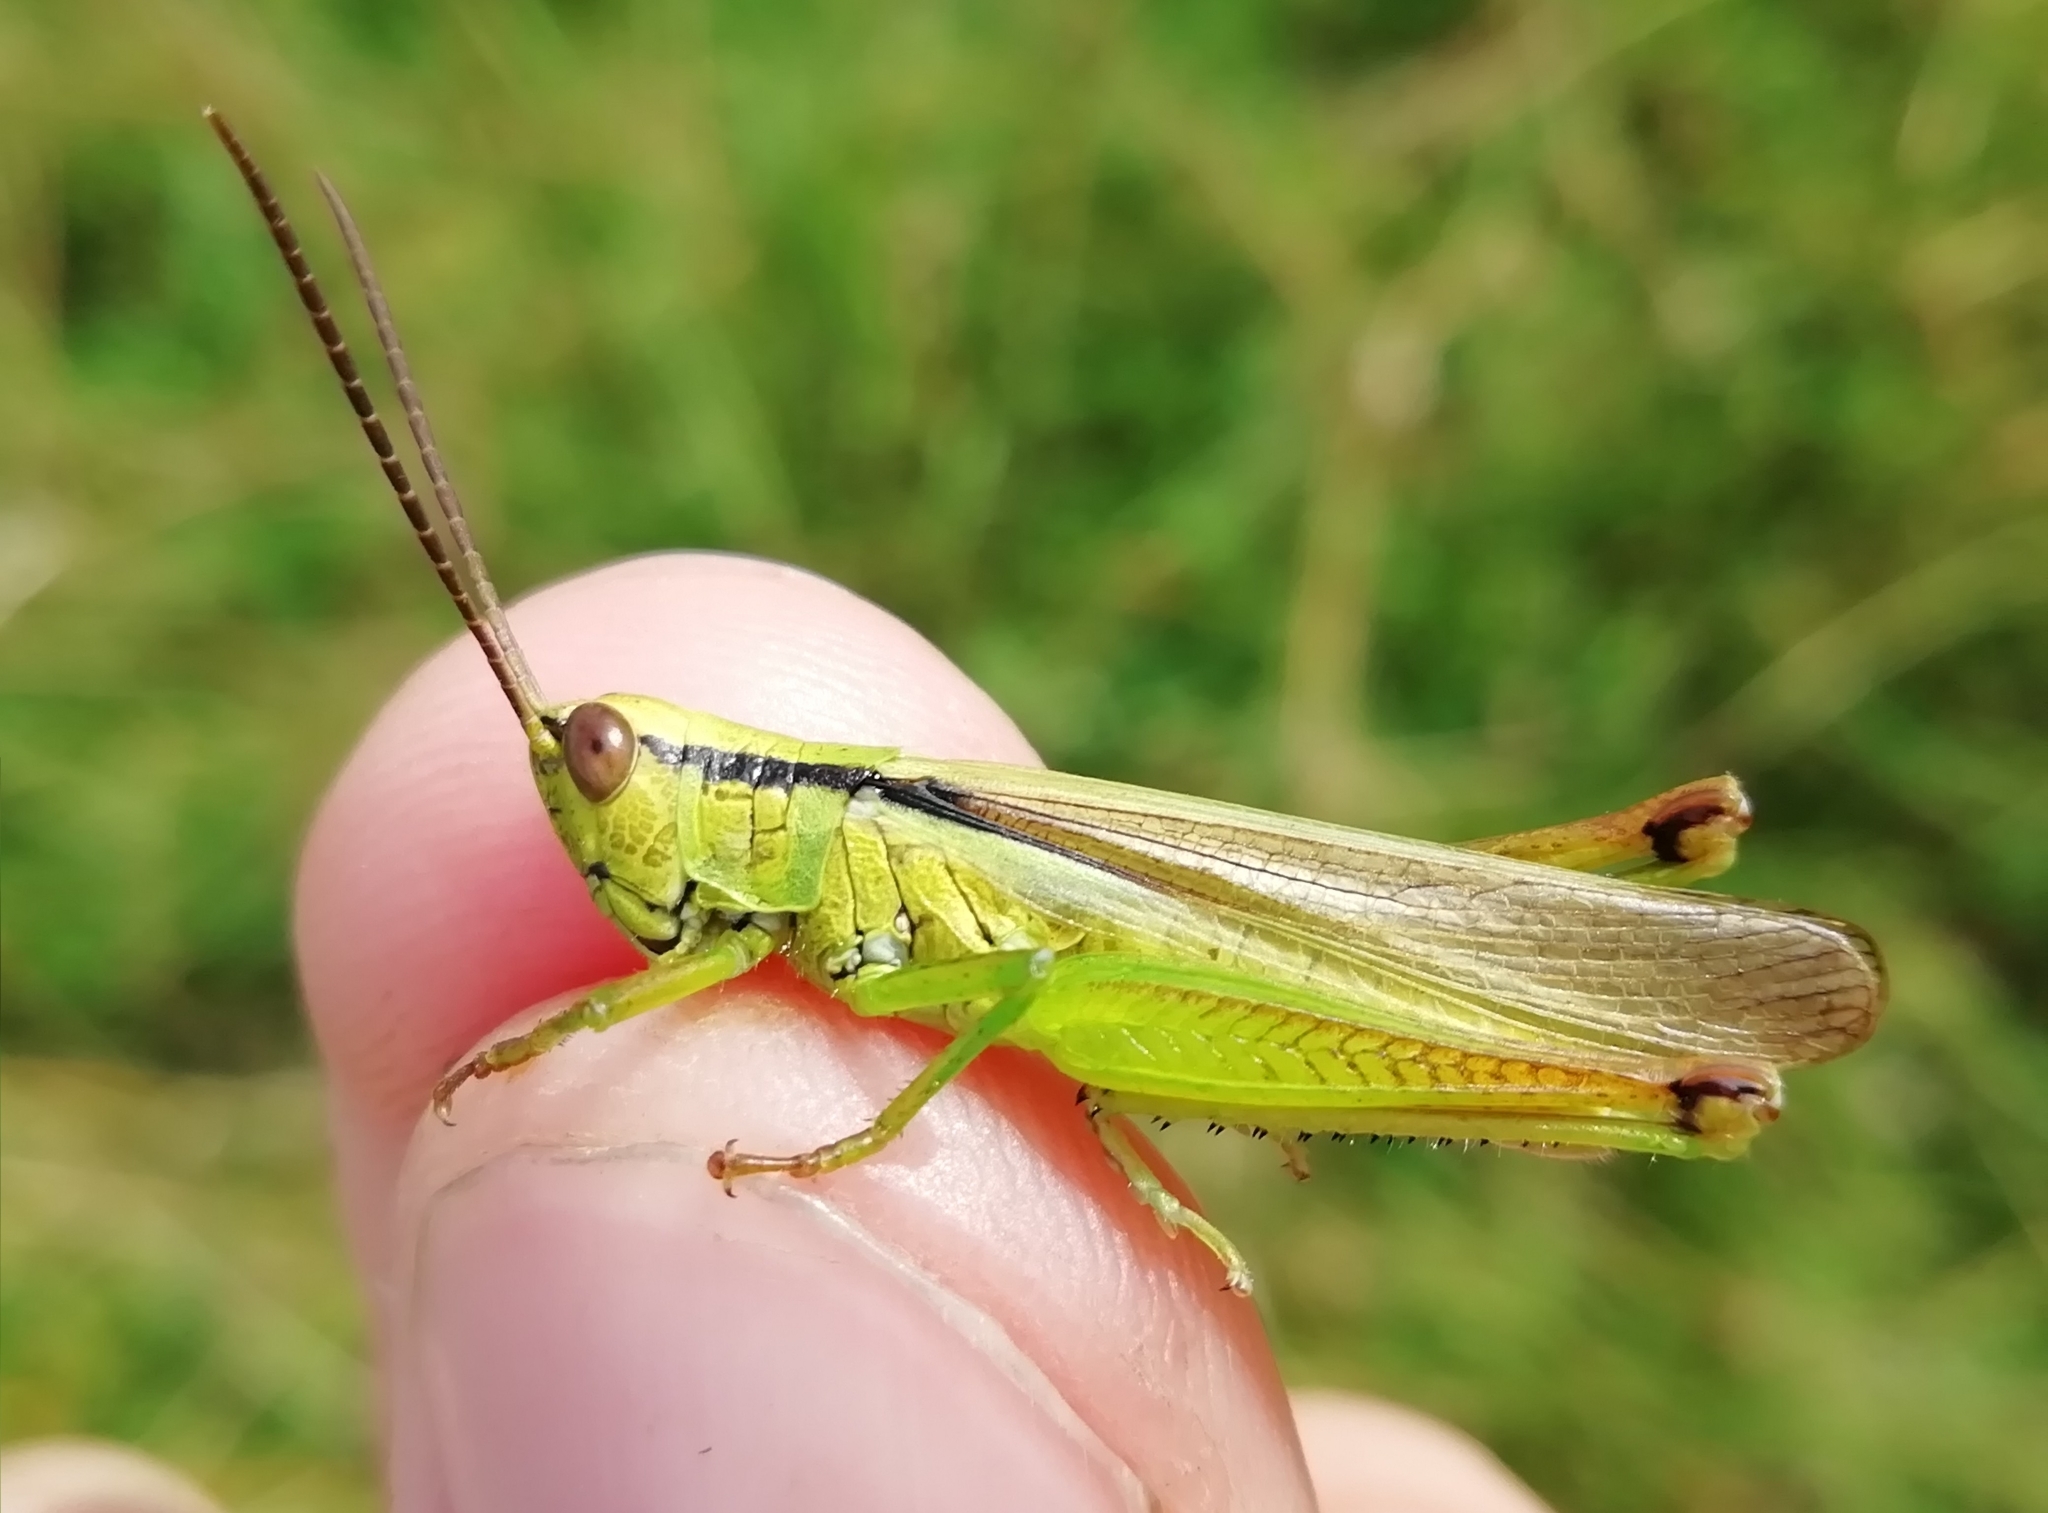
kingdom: Animalia
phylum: Arthropoda
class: Insecta
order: Orthoptera
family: Acrididae
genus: Mecostethus
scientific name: Mecostethus parapleurus
